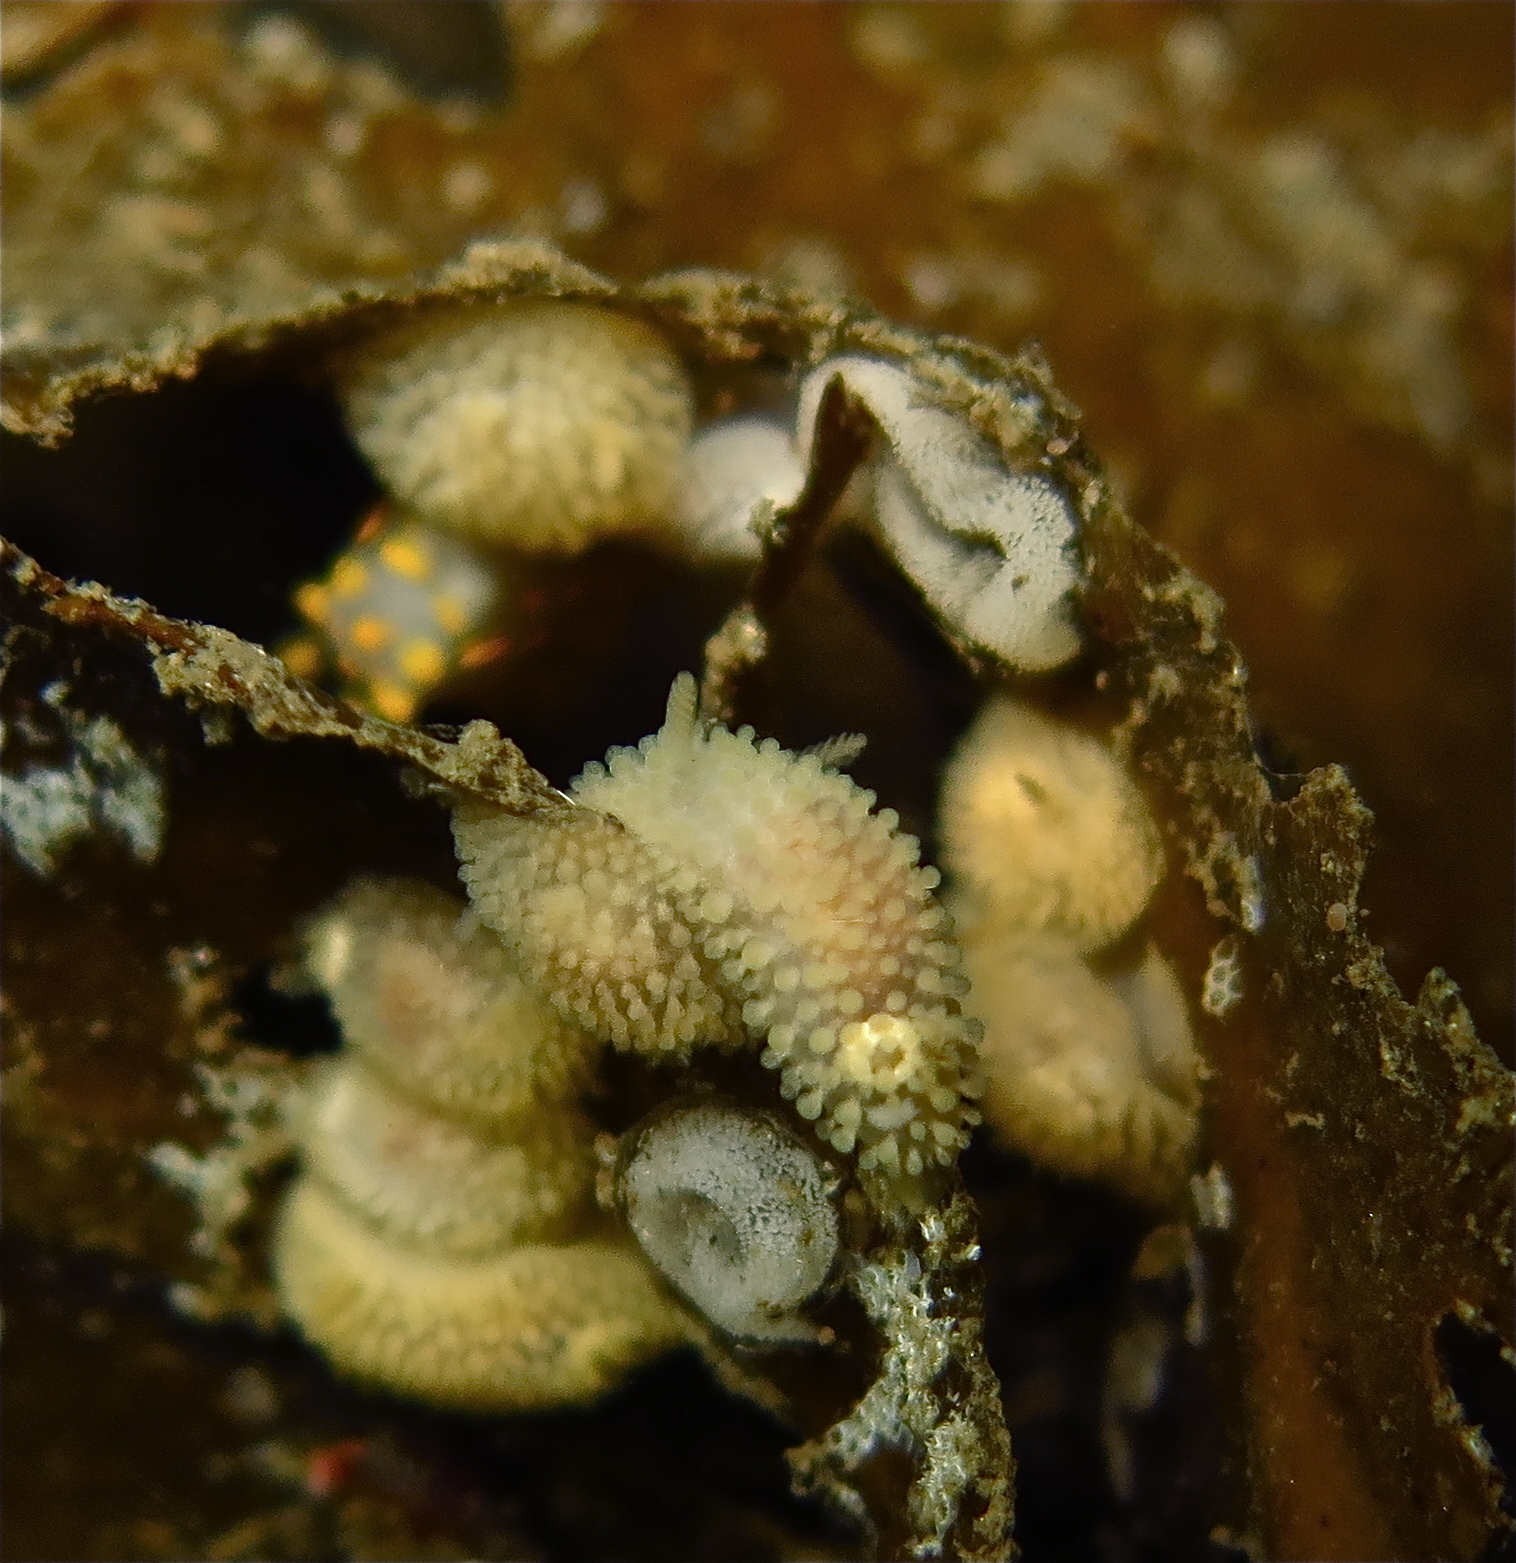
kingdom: Animalia
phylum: Mollusca
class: Gastropoda
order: Nudibranchia
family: Onchidorididae
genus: Onchidoris
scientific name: Onchidoris muricata
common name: Rough doris
